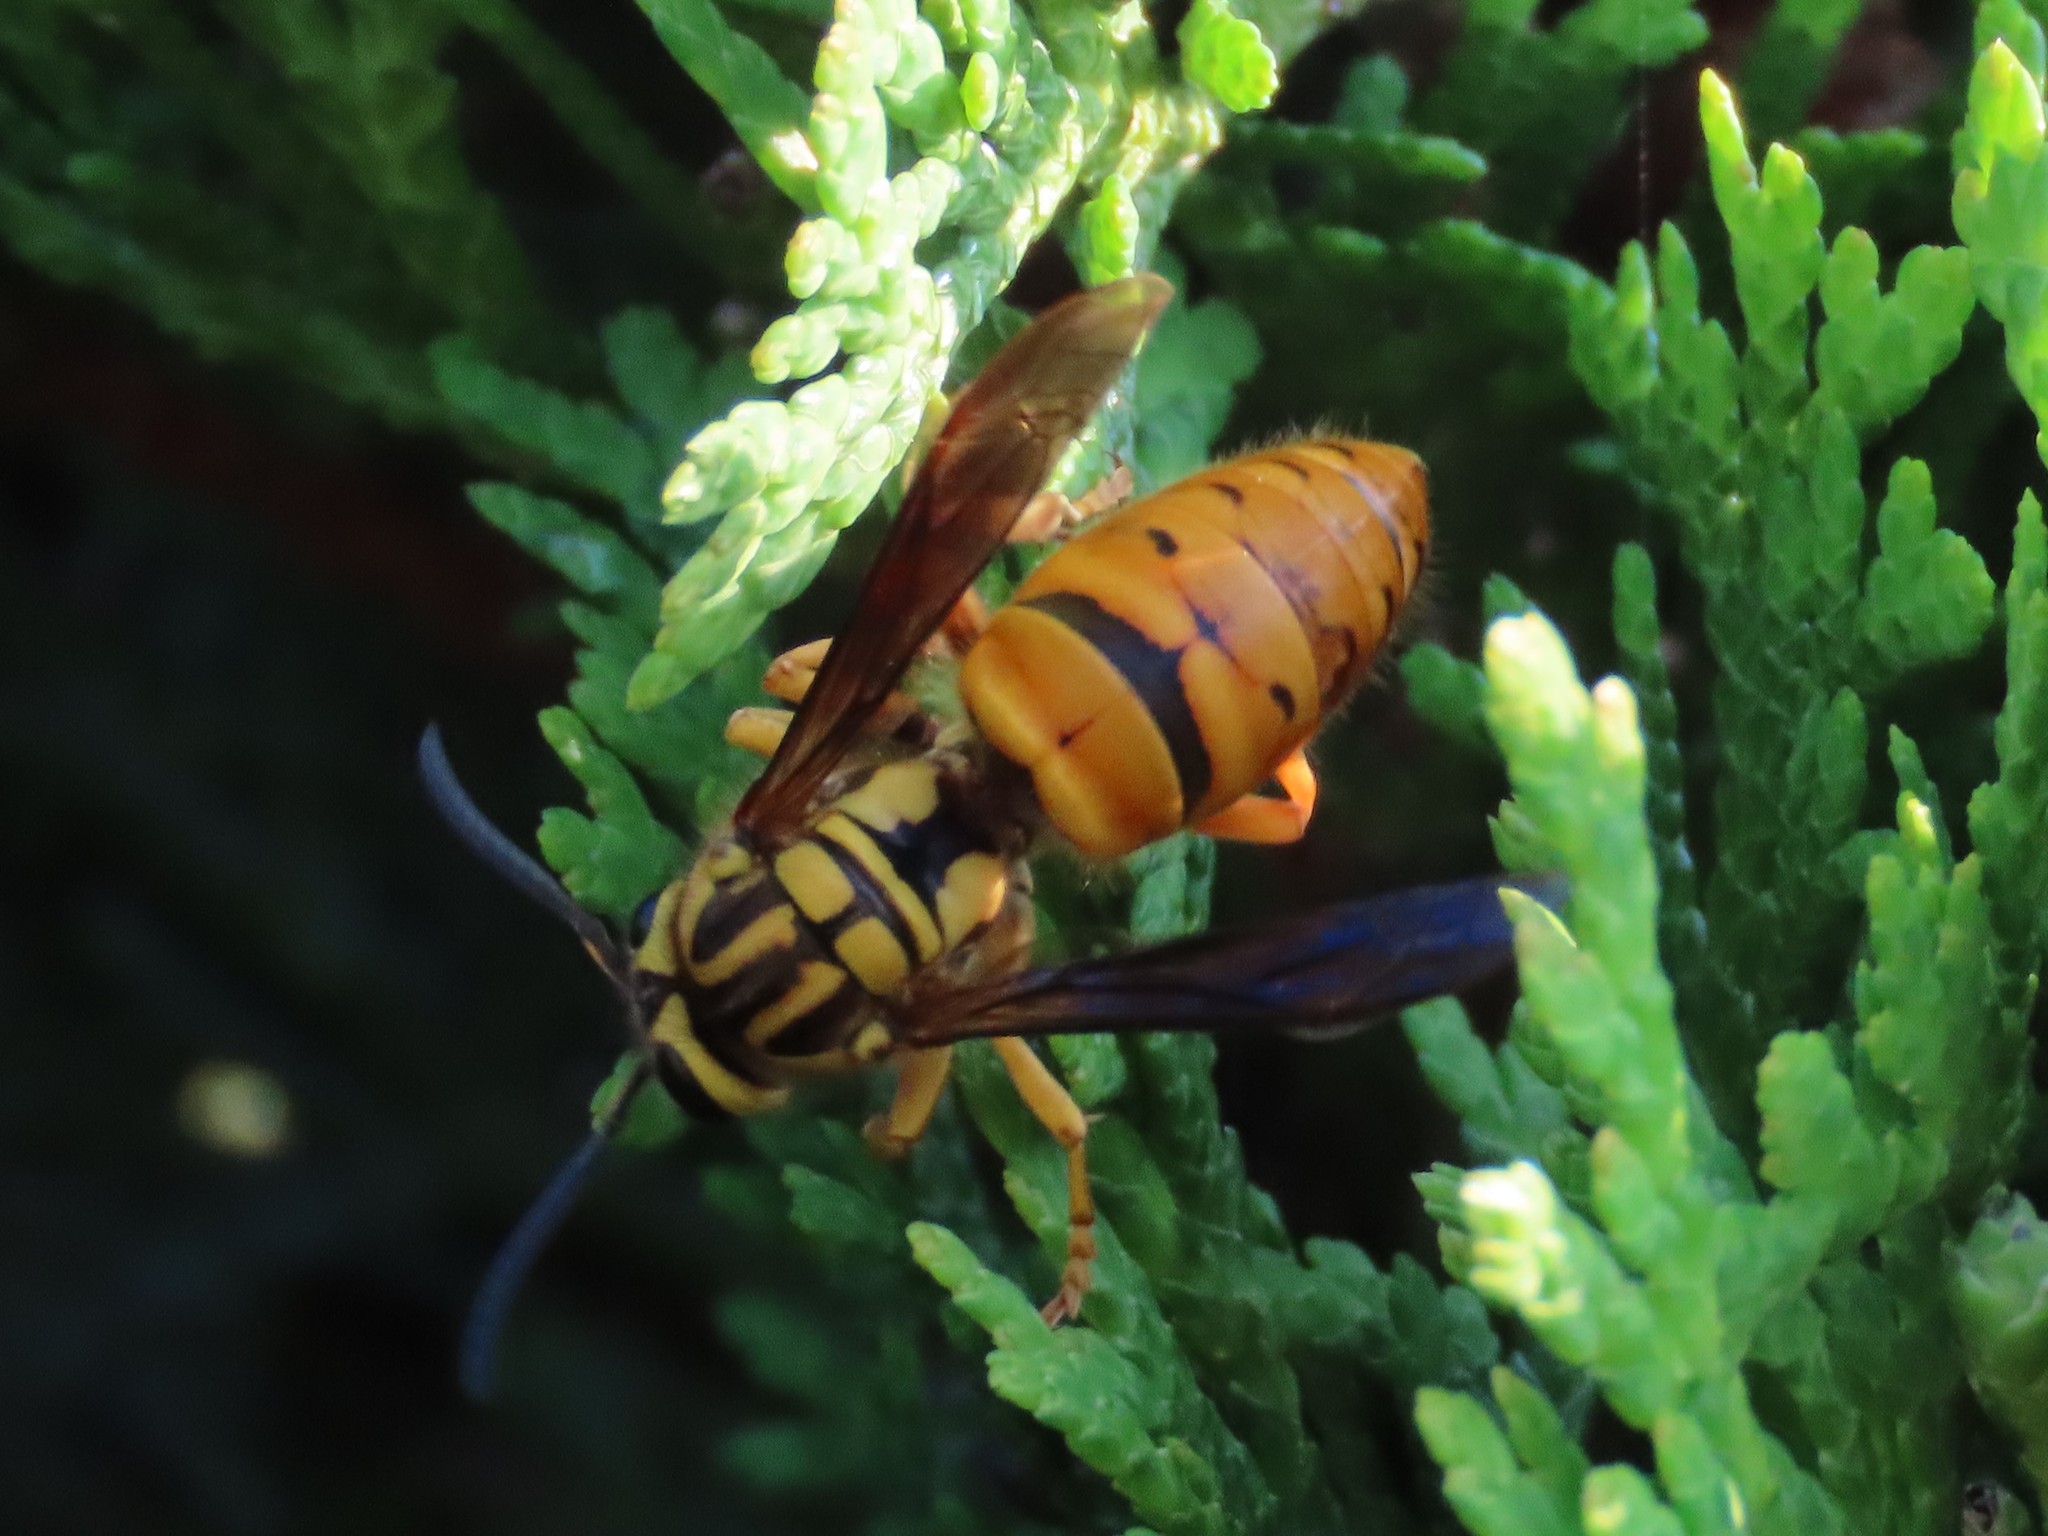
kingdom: Animalia
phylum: Arthropoda
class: Insecta
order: Hymenoptera
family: Vespidae
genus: Vespula
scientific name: Vespula squamosa
